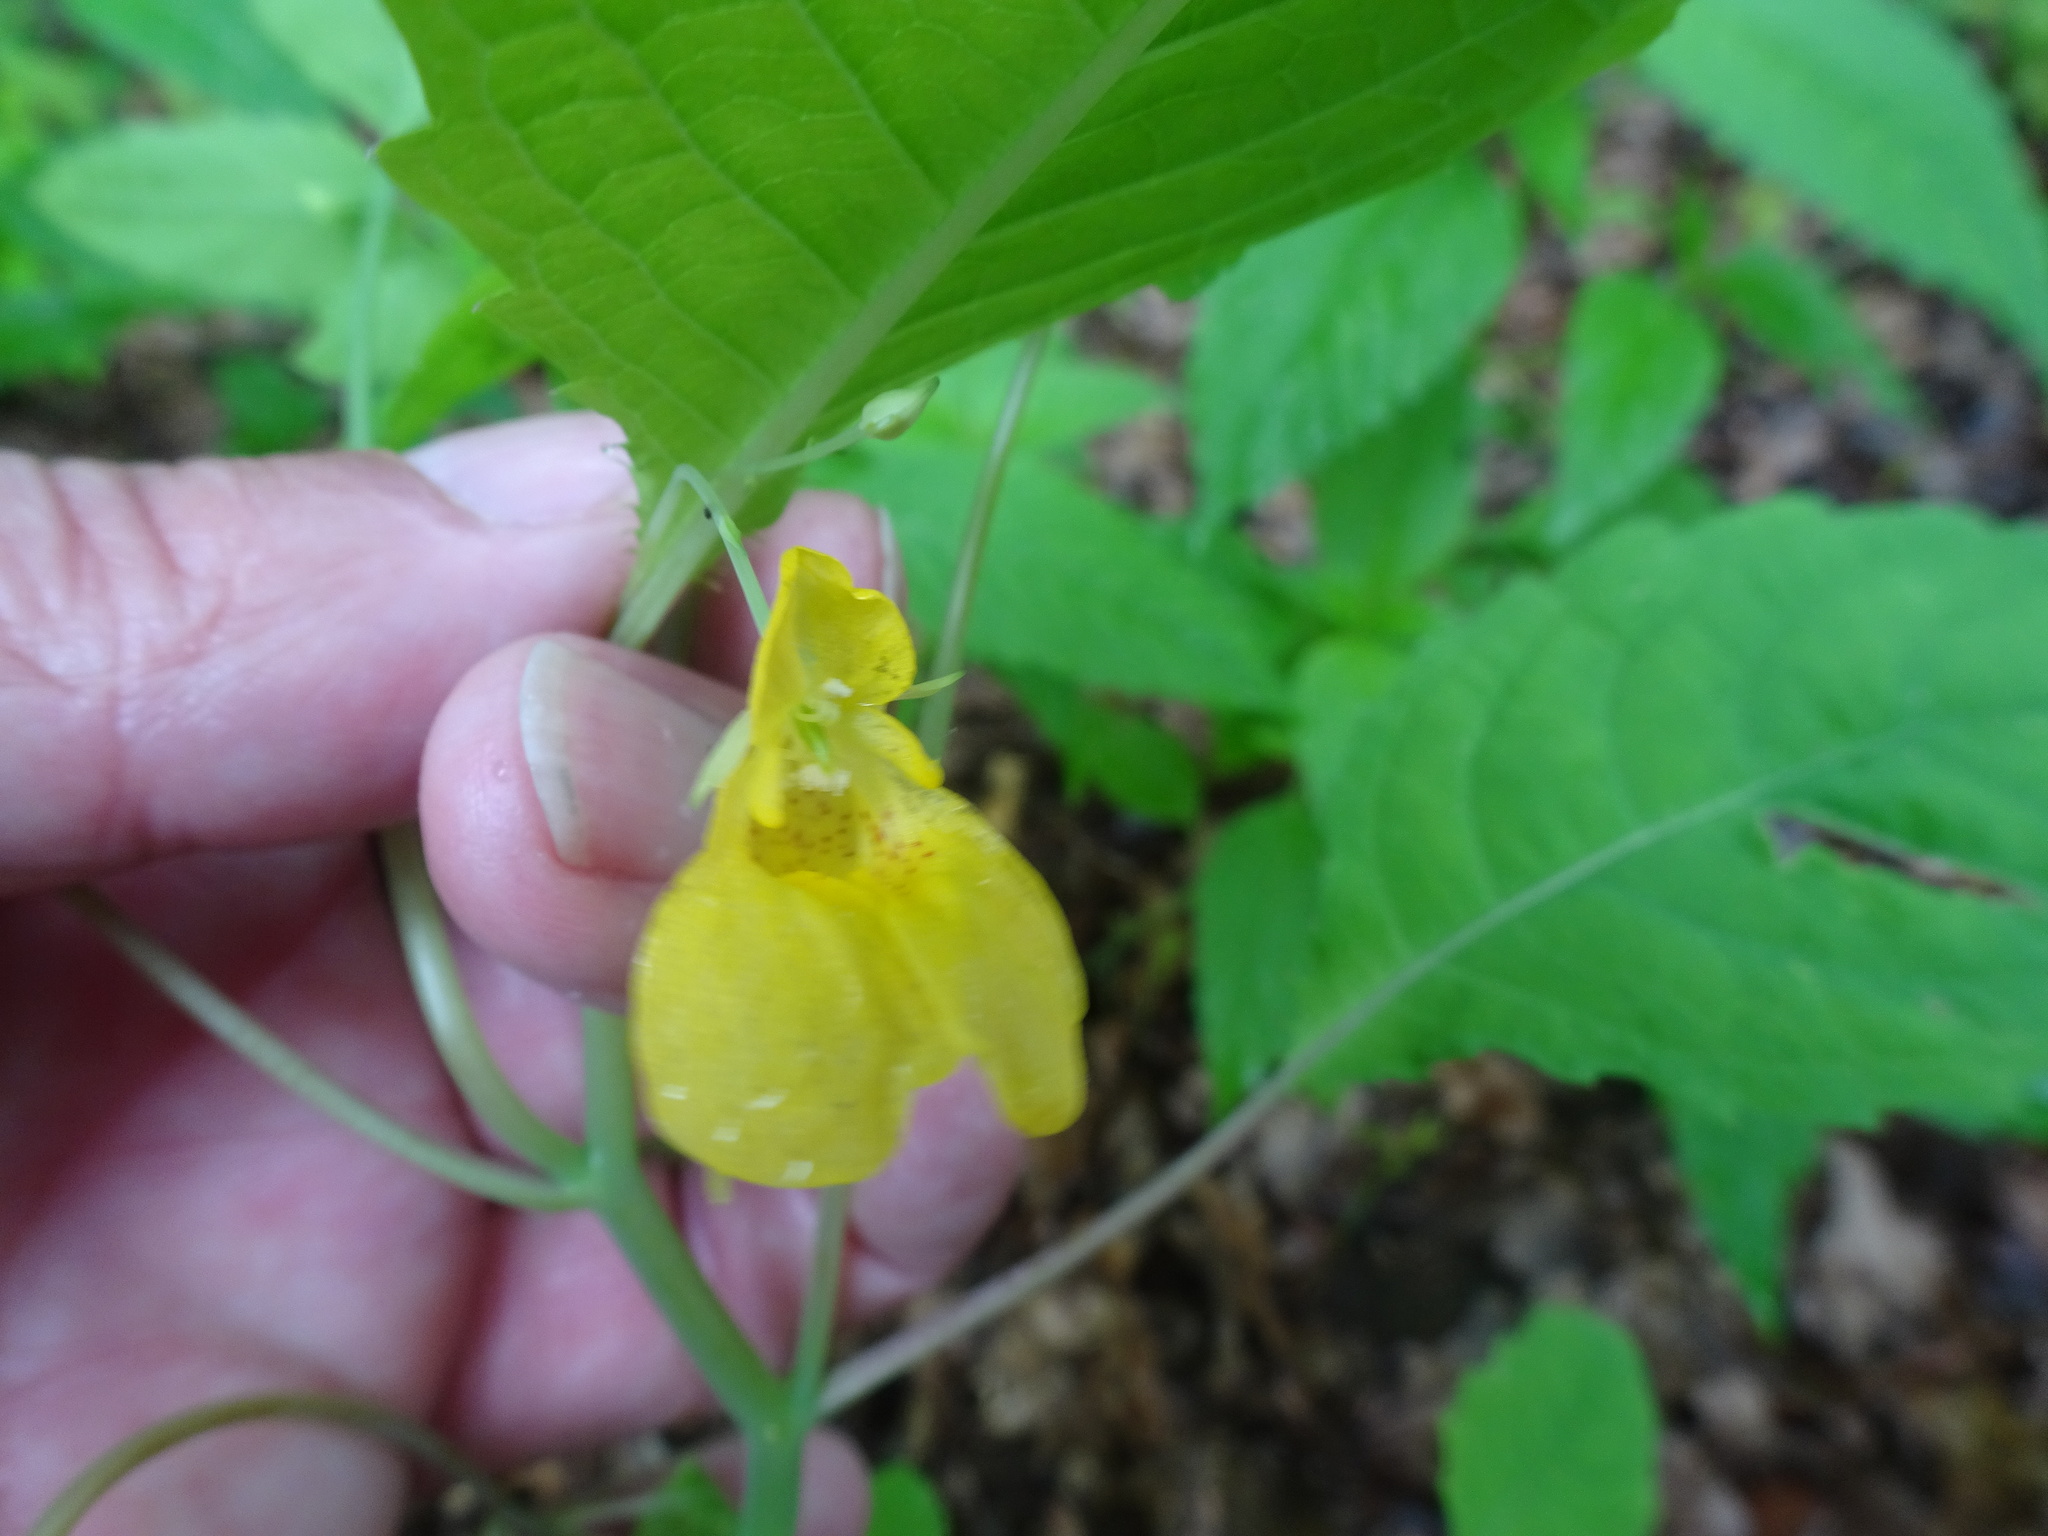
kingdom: Plantae
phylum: Tracheophyta
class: Magnoliopsida
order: Ericales
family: Balsaminaceae
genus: Impatiens
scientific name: Impatiens noli-tangere
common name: Touch-me-not balsam
